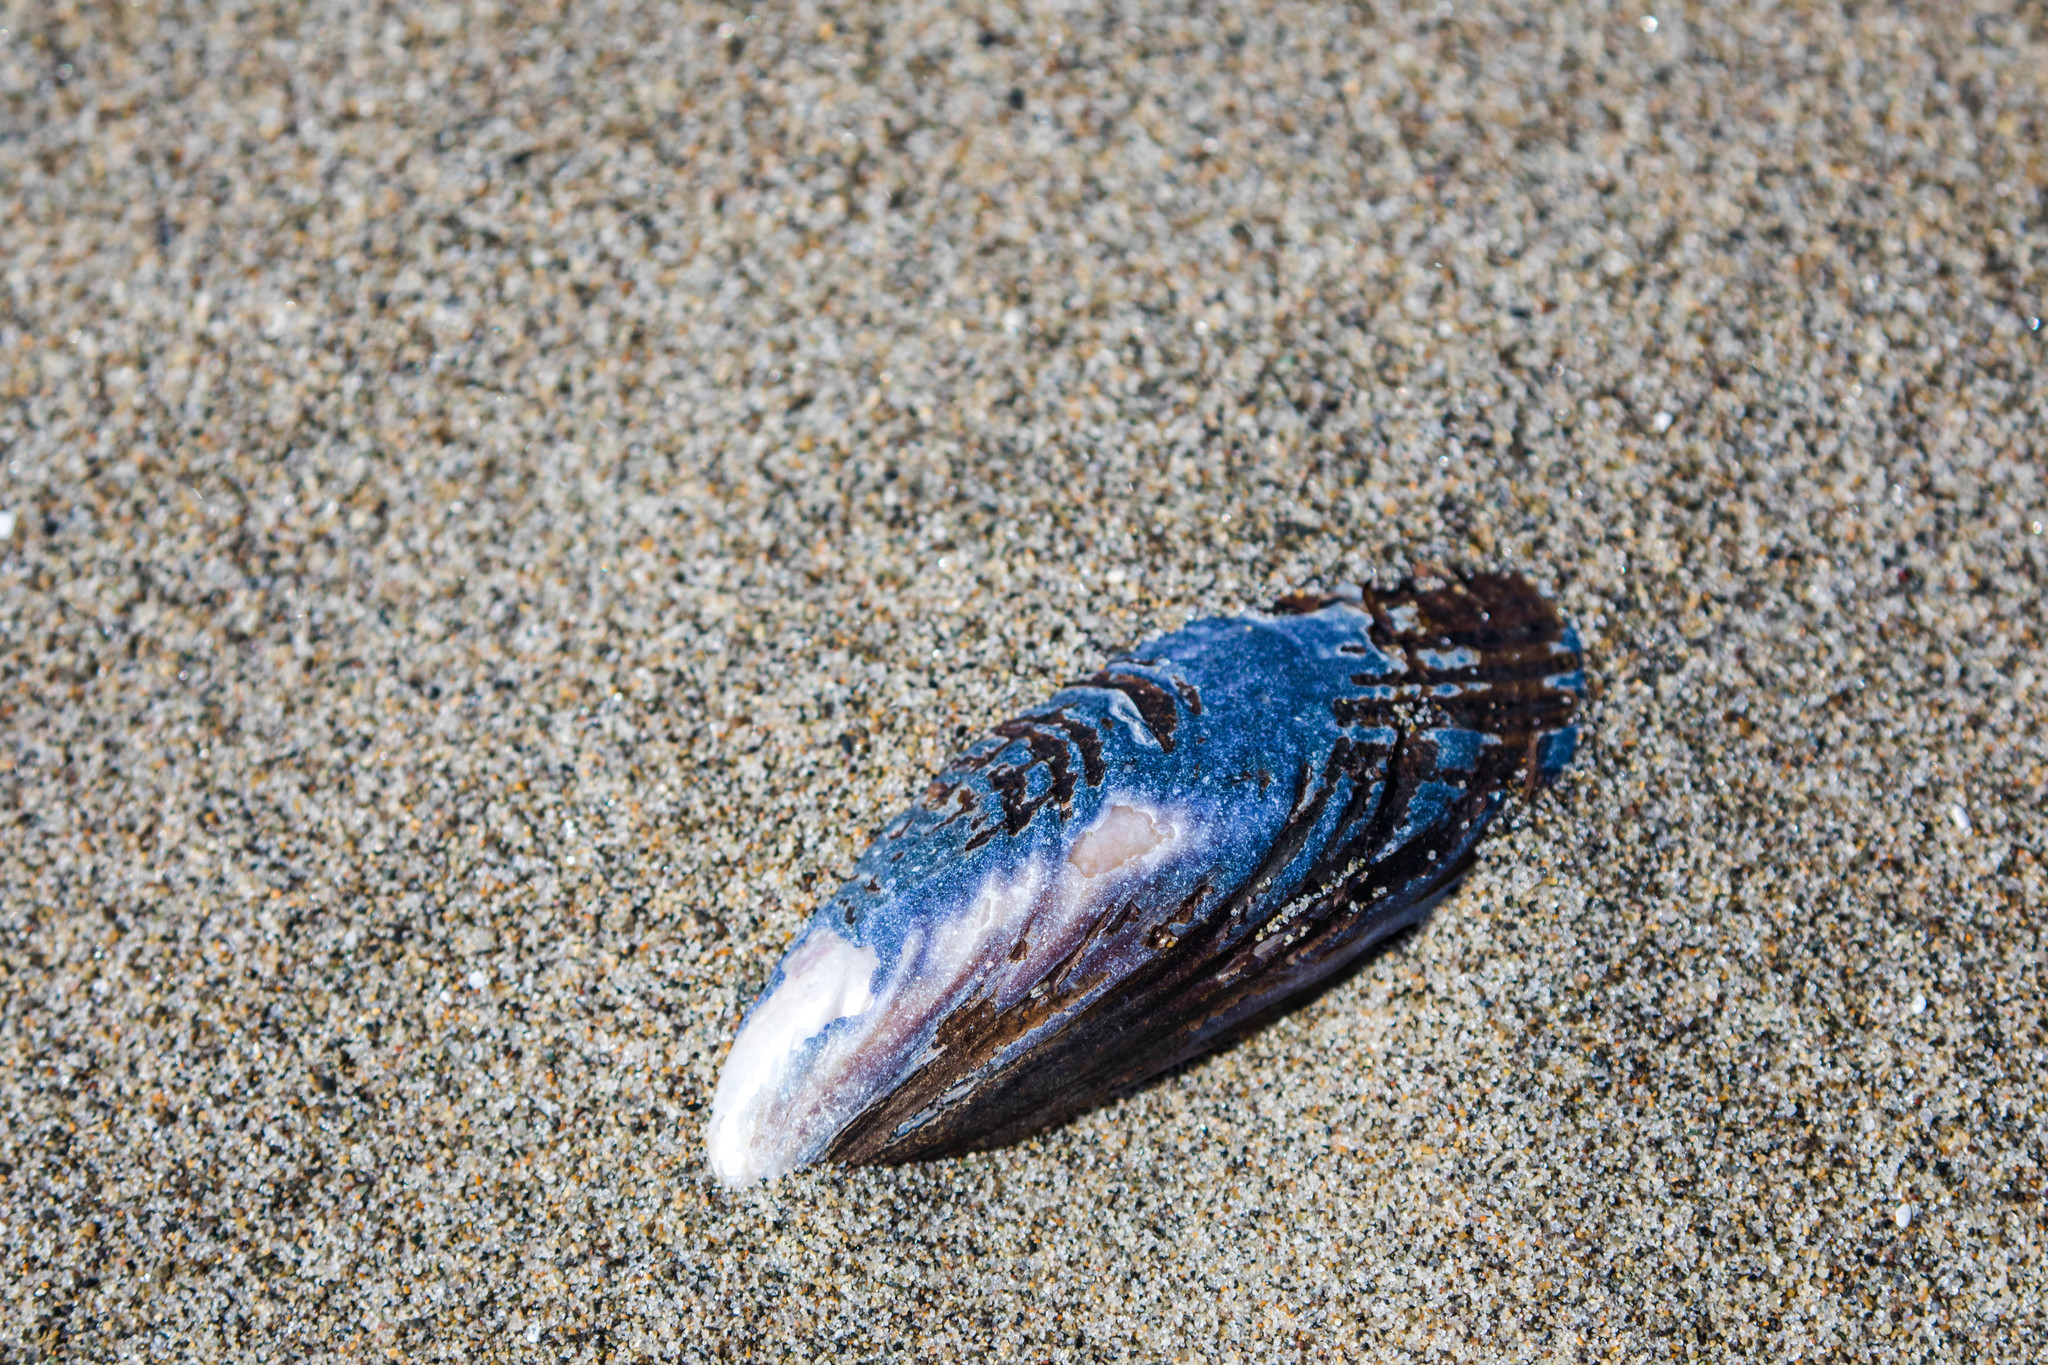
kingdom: Animalia
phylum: Mollusca
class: Bivalvia
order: Mytilida
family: Mytilidae
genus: Mytilus
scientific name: Mytilus californianus
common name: California mussel
